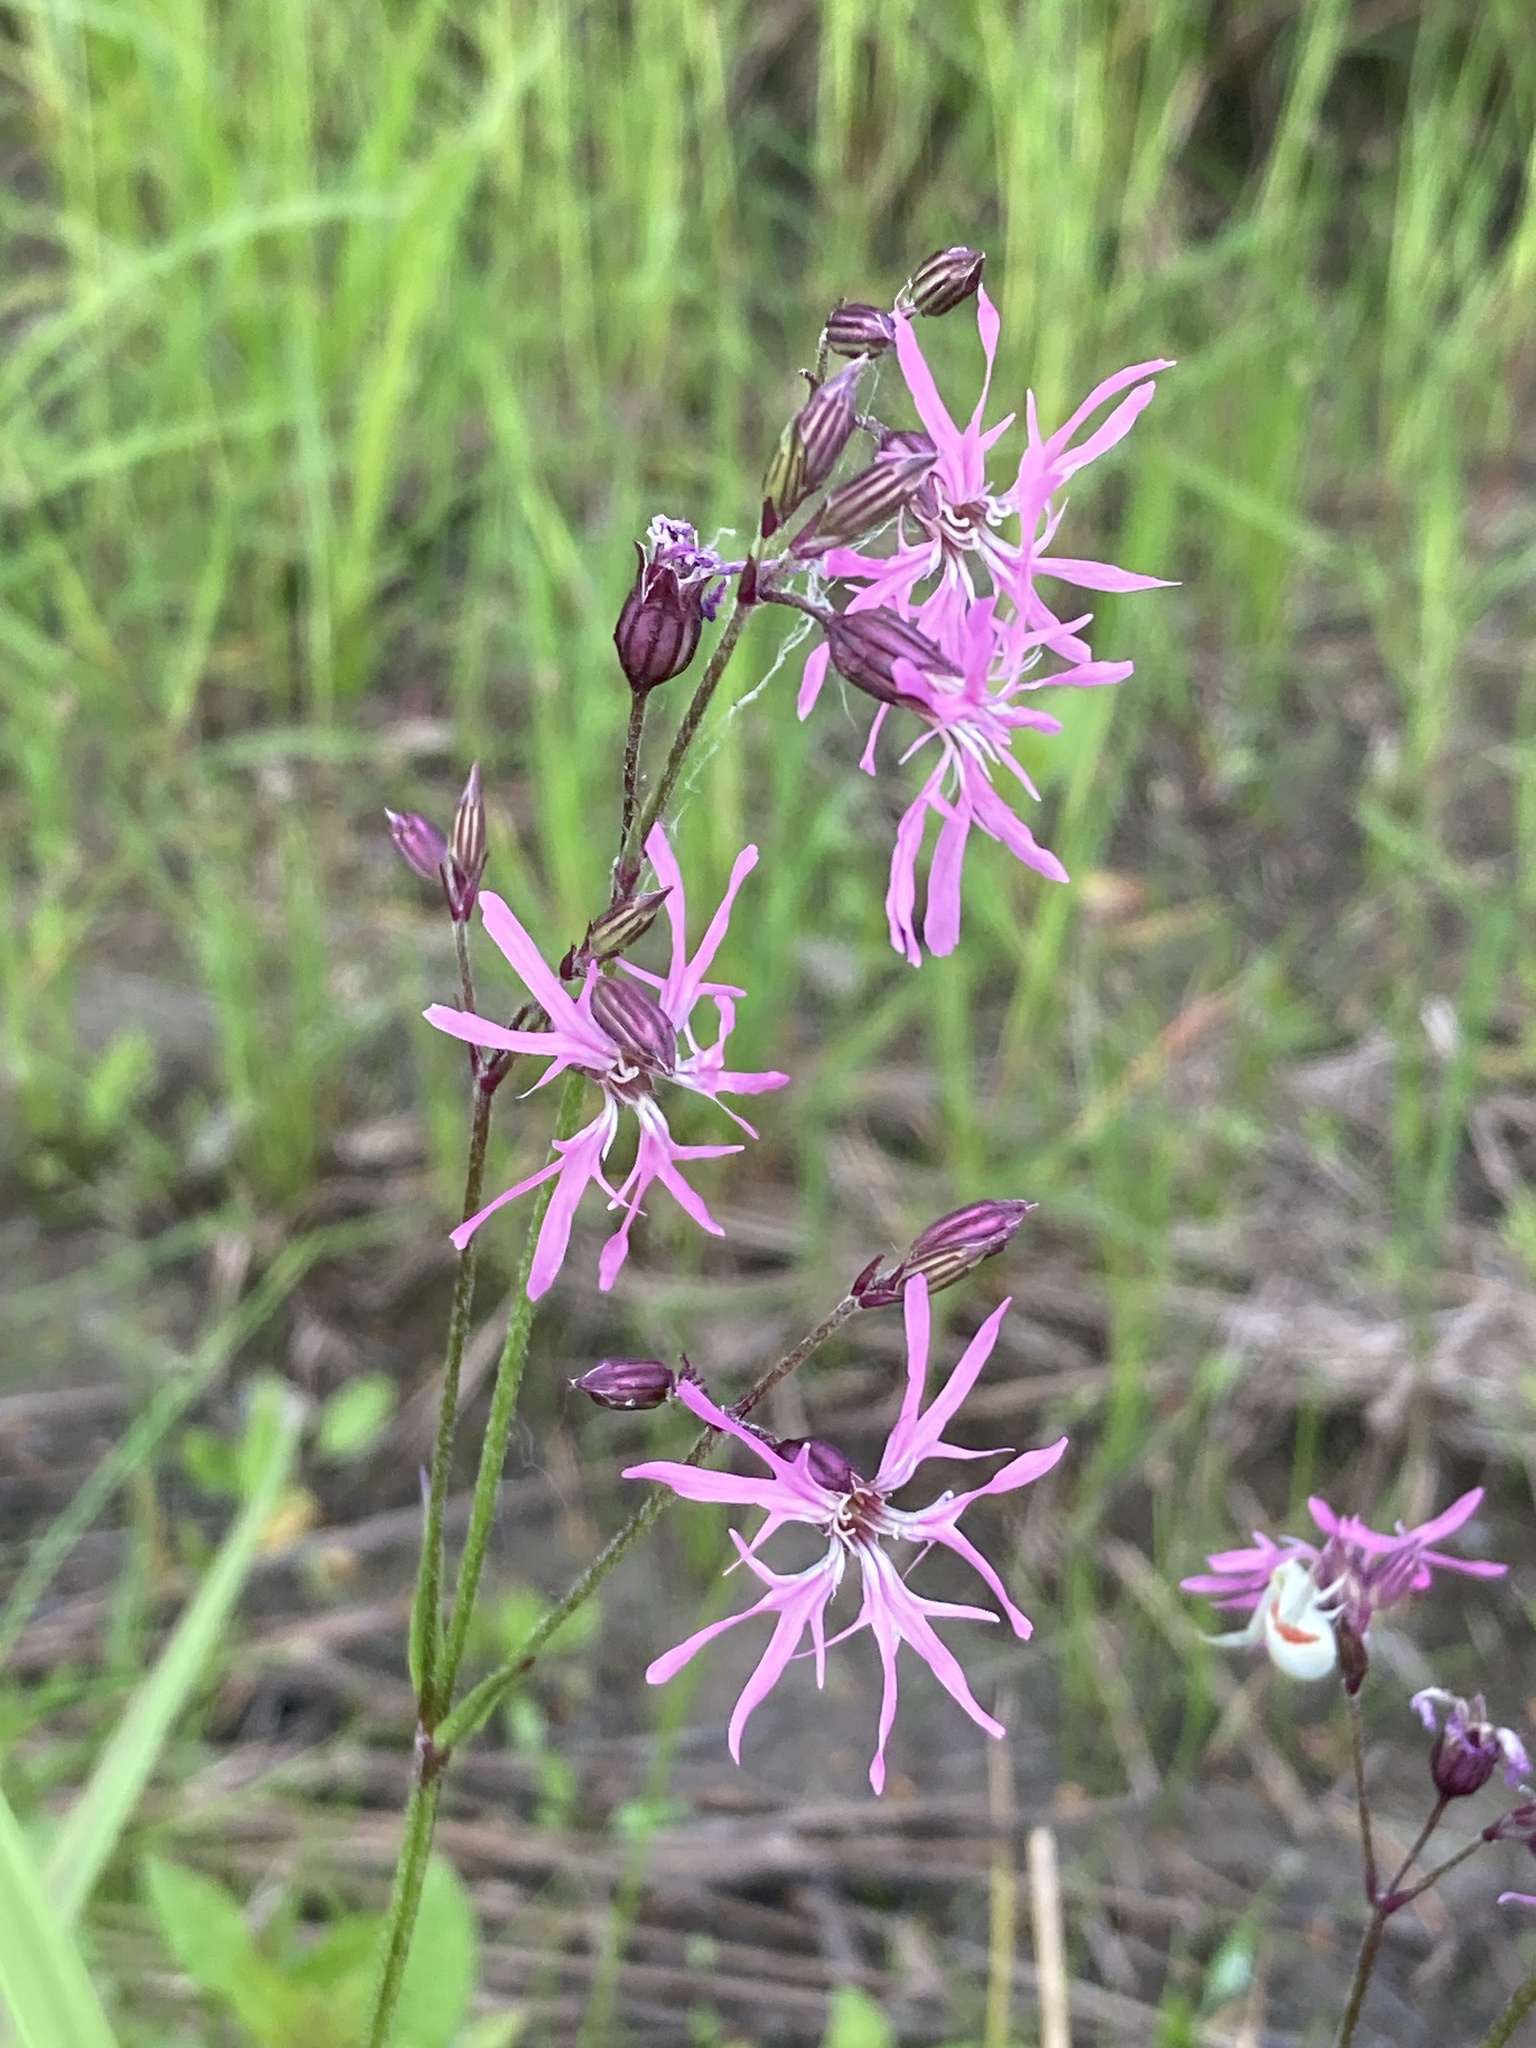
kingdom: Plantae
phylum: Tracheophyta
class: Magnoliopsida
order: Caryophyllales
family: Caryophyllaceae
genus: Silene
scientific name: Silene flos-cuculi
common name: Ragged-robin
